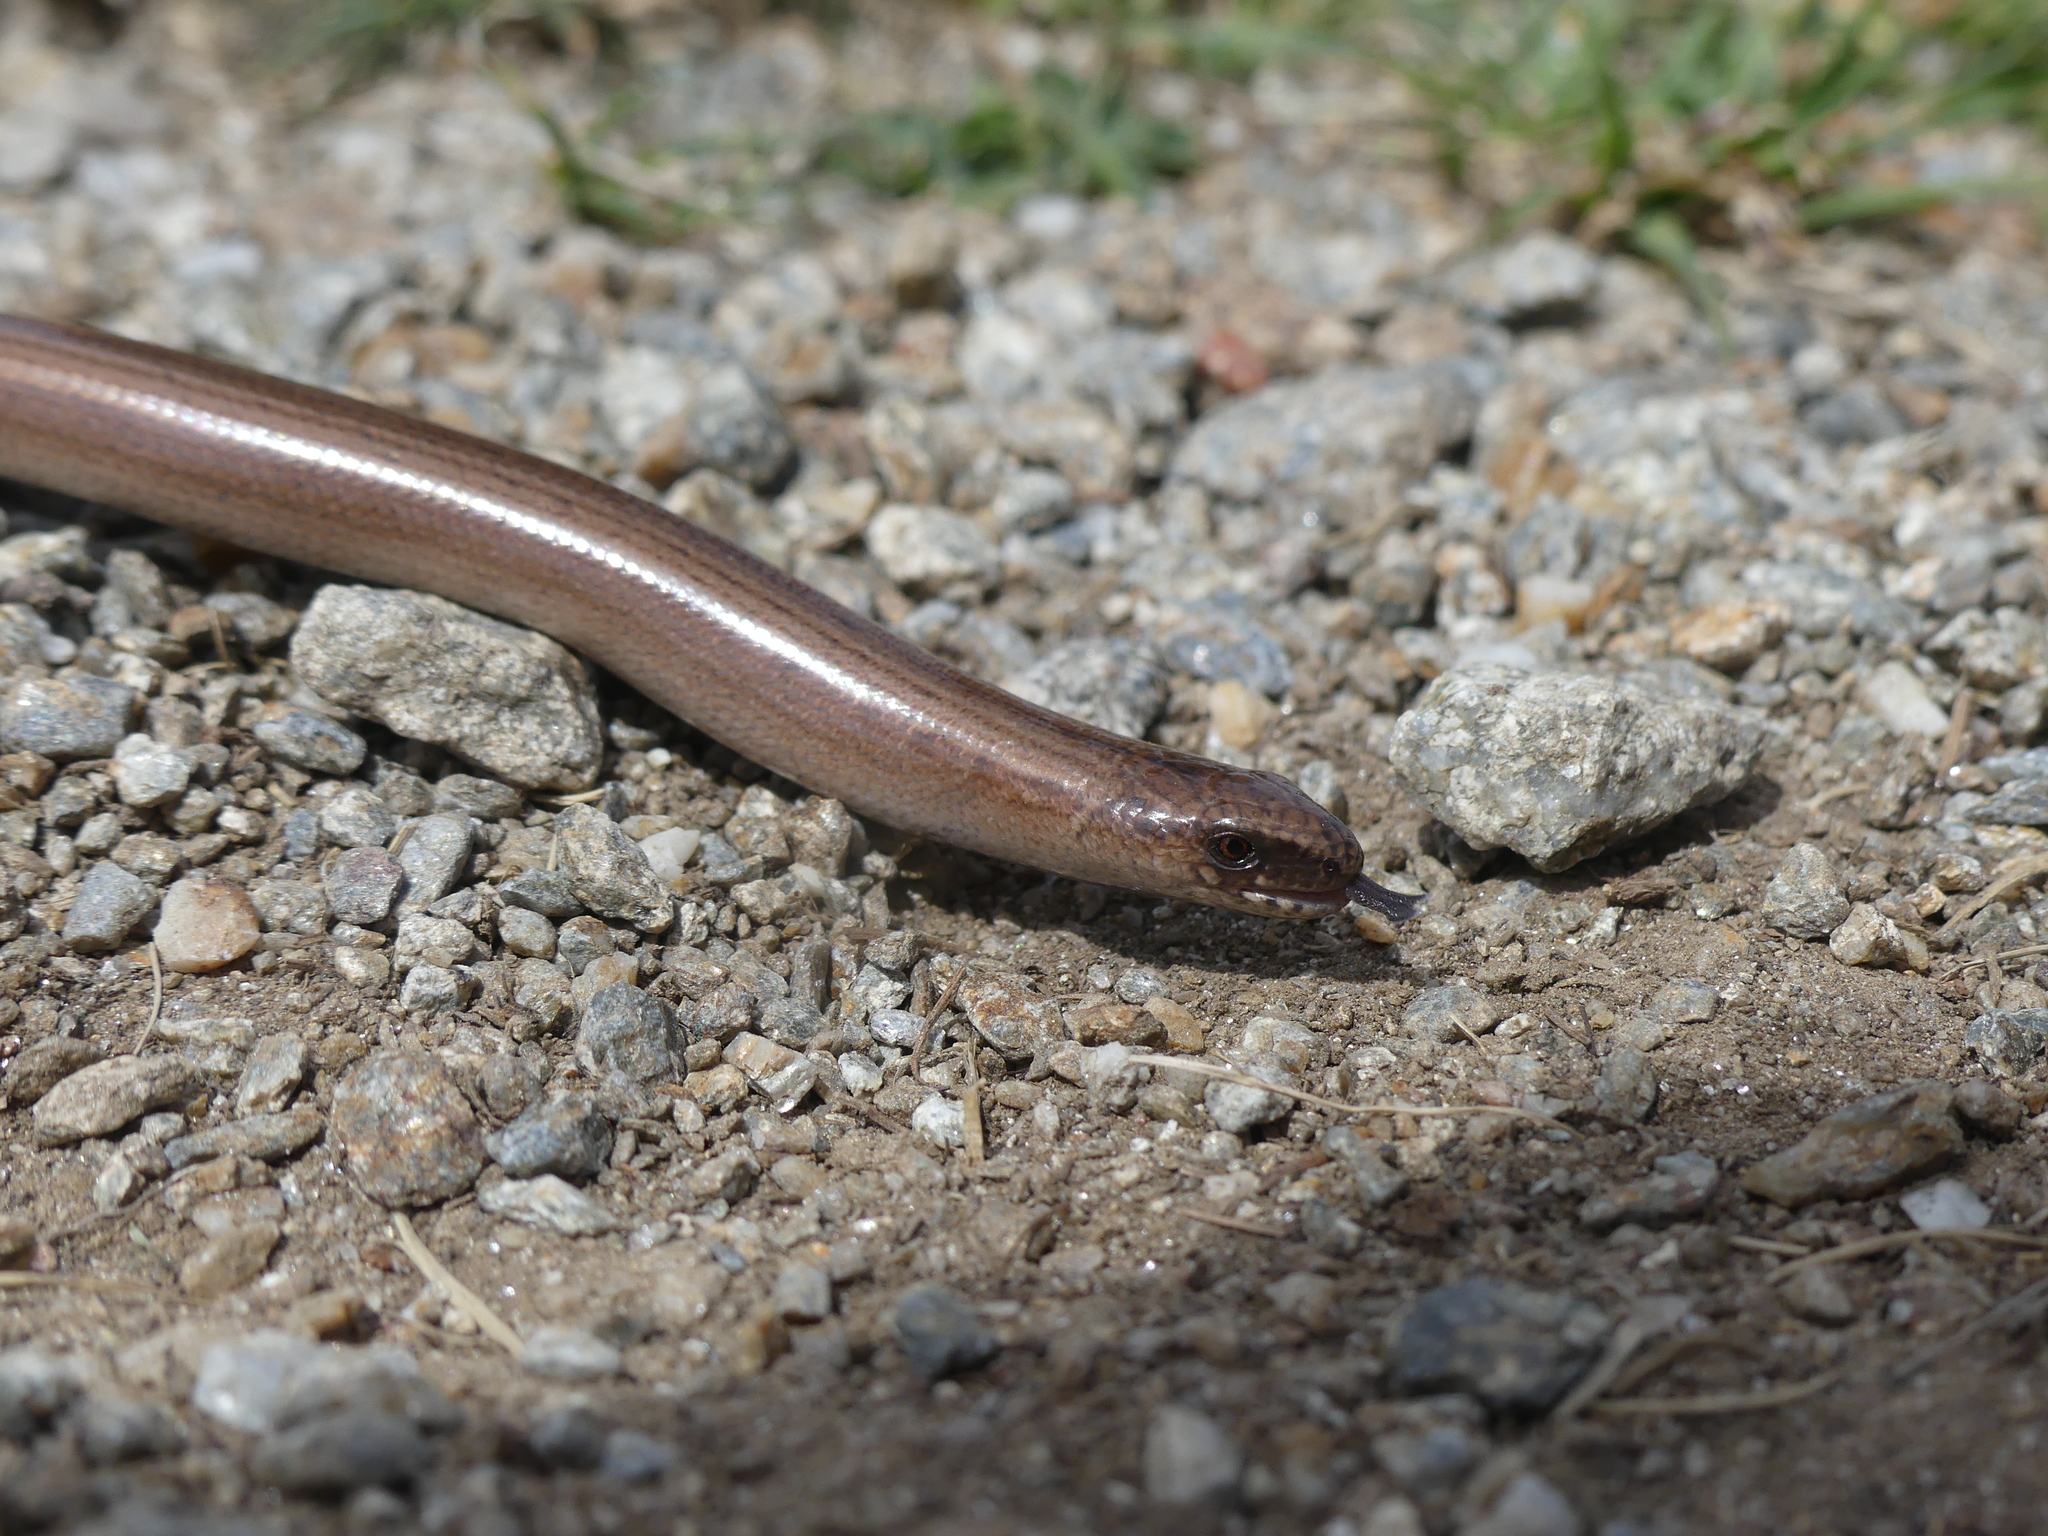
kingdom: Animalia
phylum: Chordata
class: Squamata
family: Anguidae
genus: Anguis
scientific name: Anguis veronensis
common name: Italian slow worm
